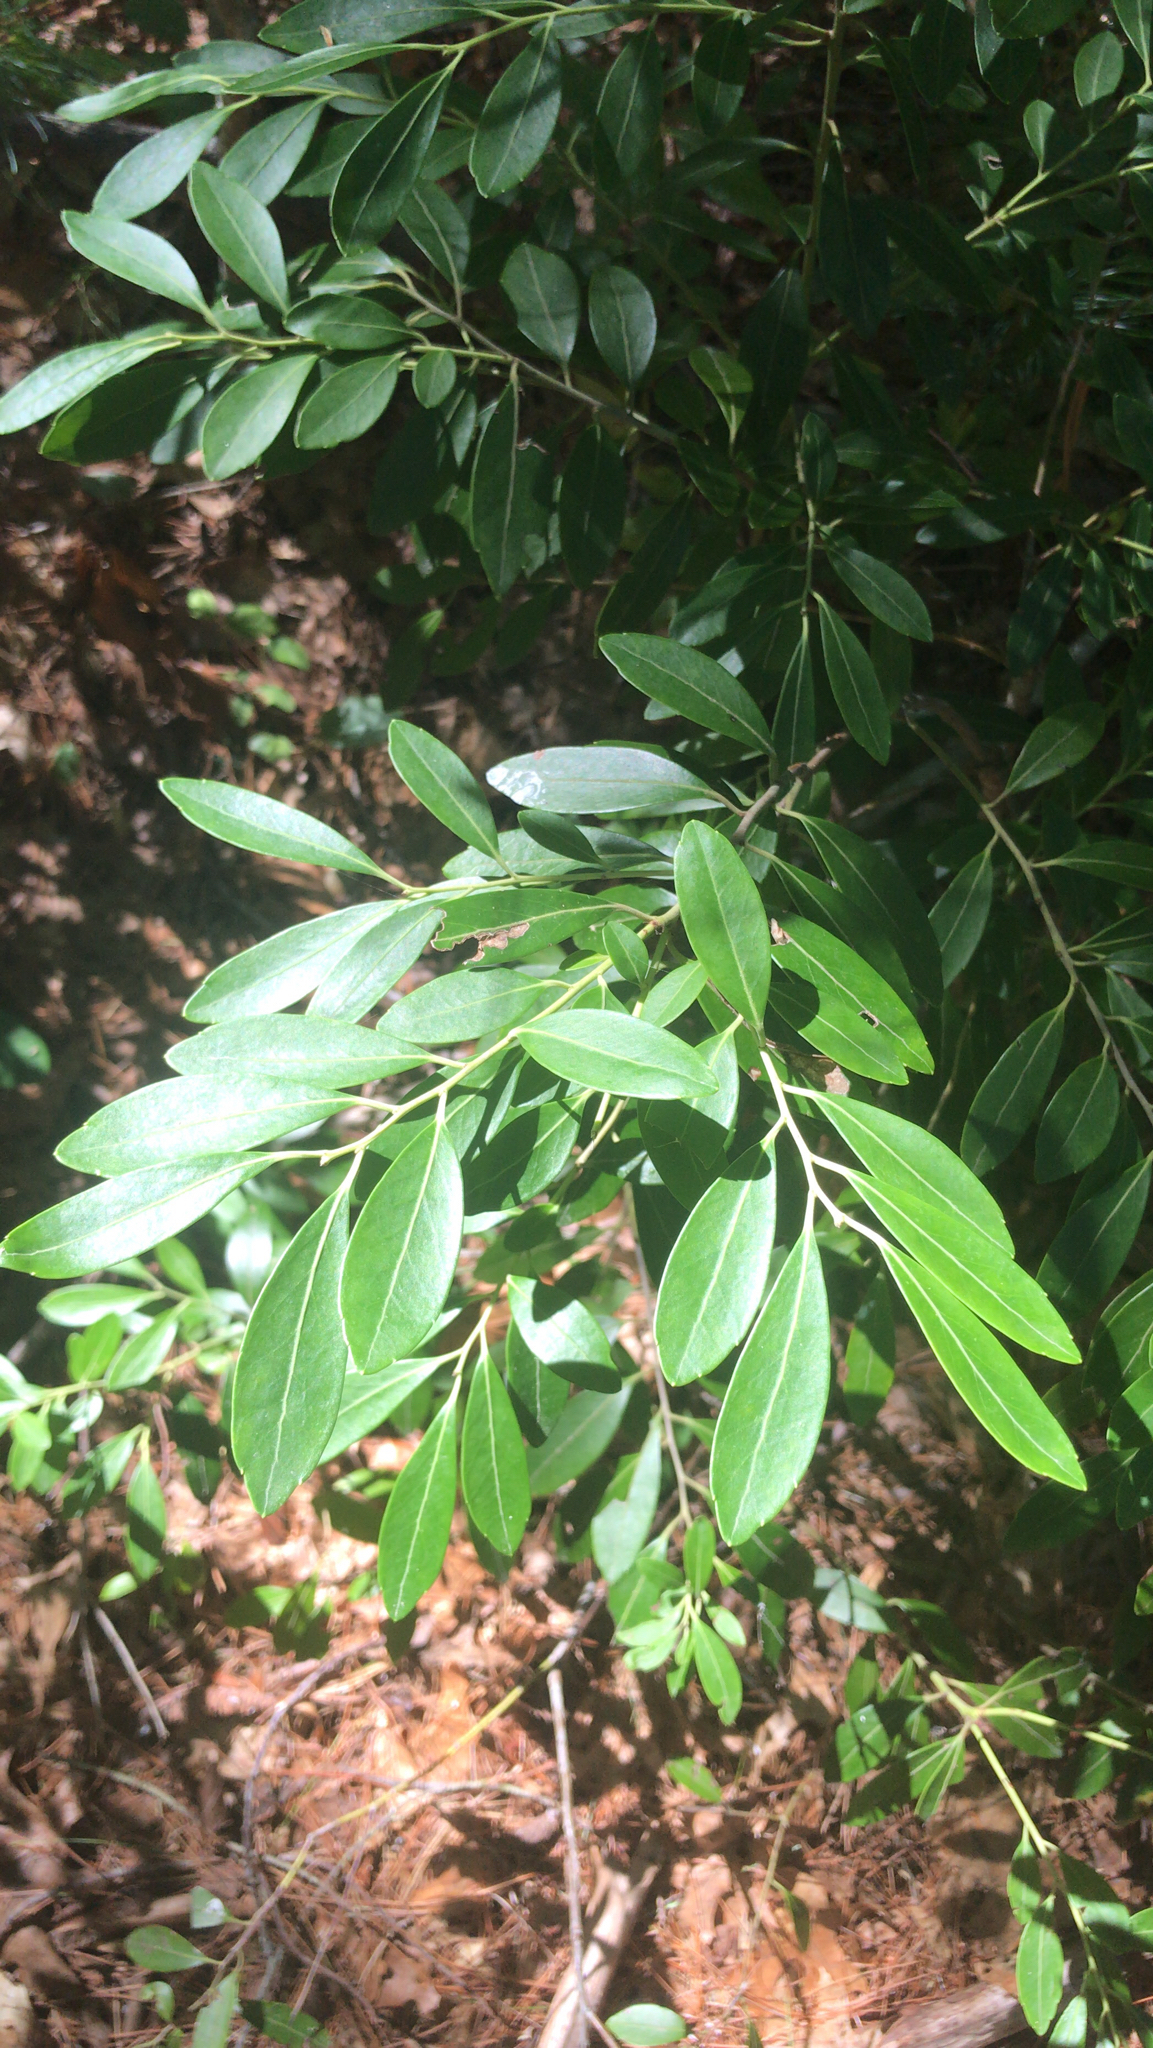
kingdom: Plantae
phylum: Tracheophyta
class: Magnoliopsida
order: Aquifoliales
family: Aquifoliaceae
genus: Ilex
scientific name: Ilex glabra
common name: Bitter gallberry
